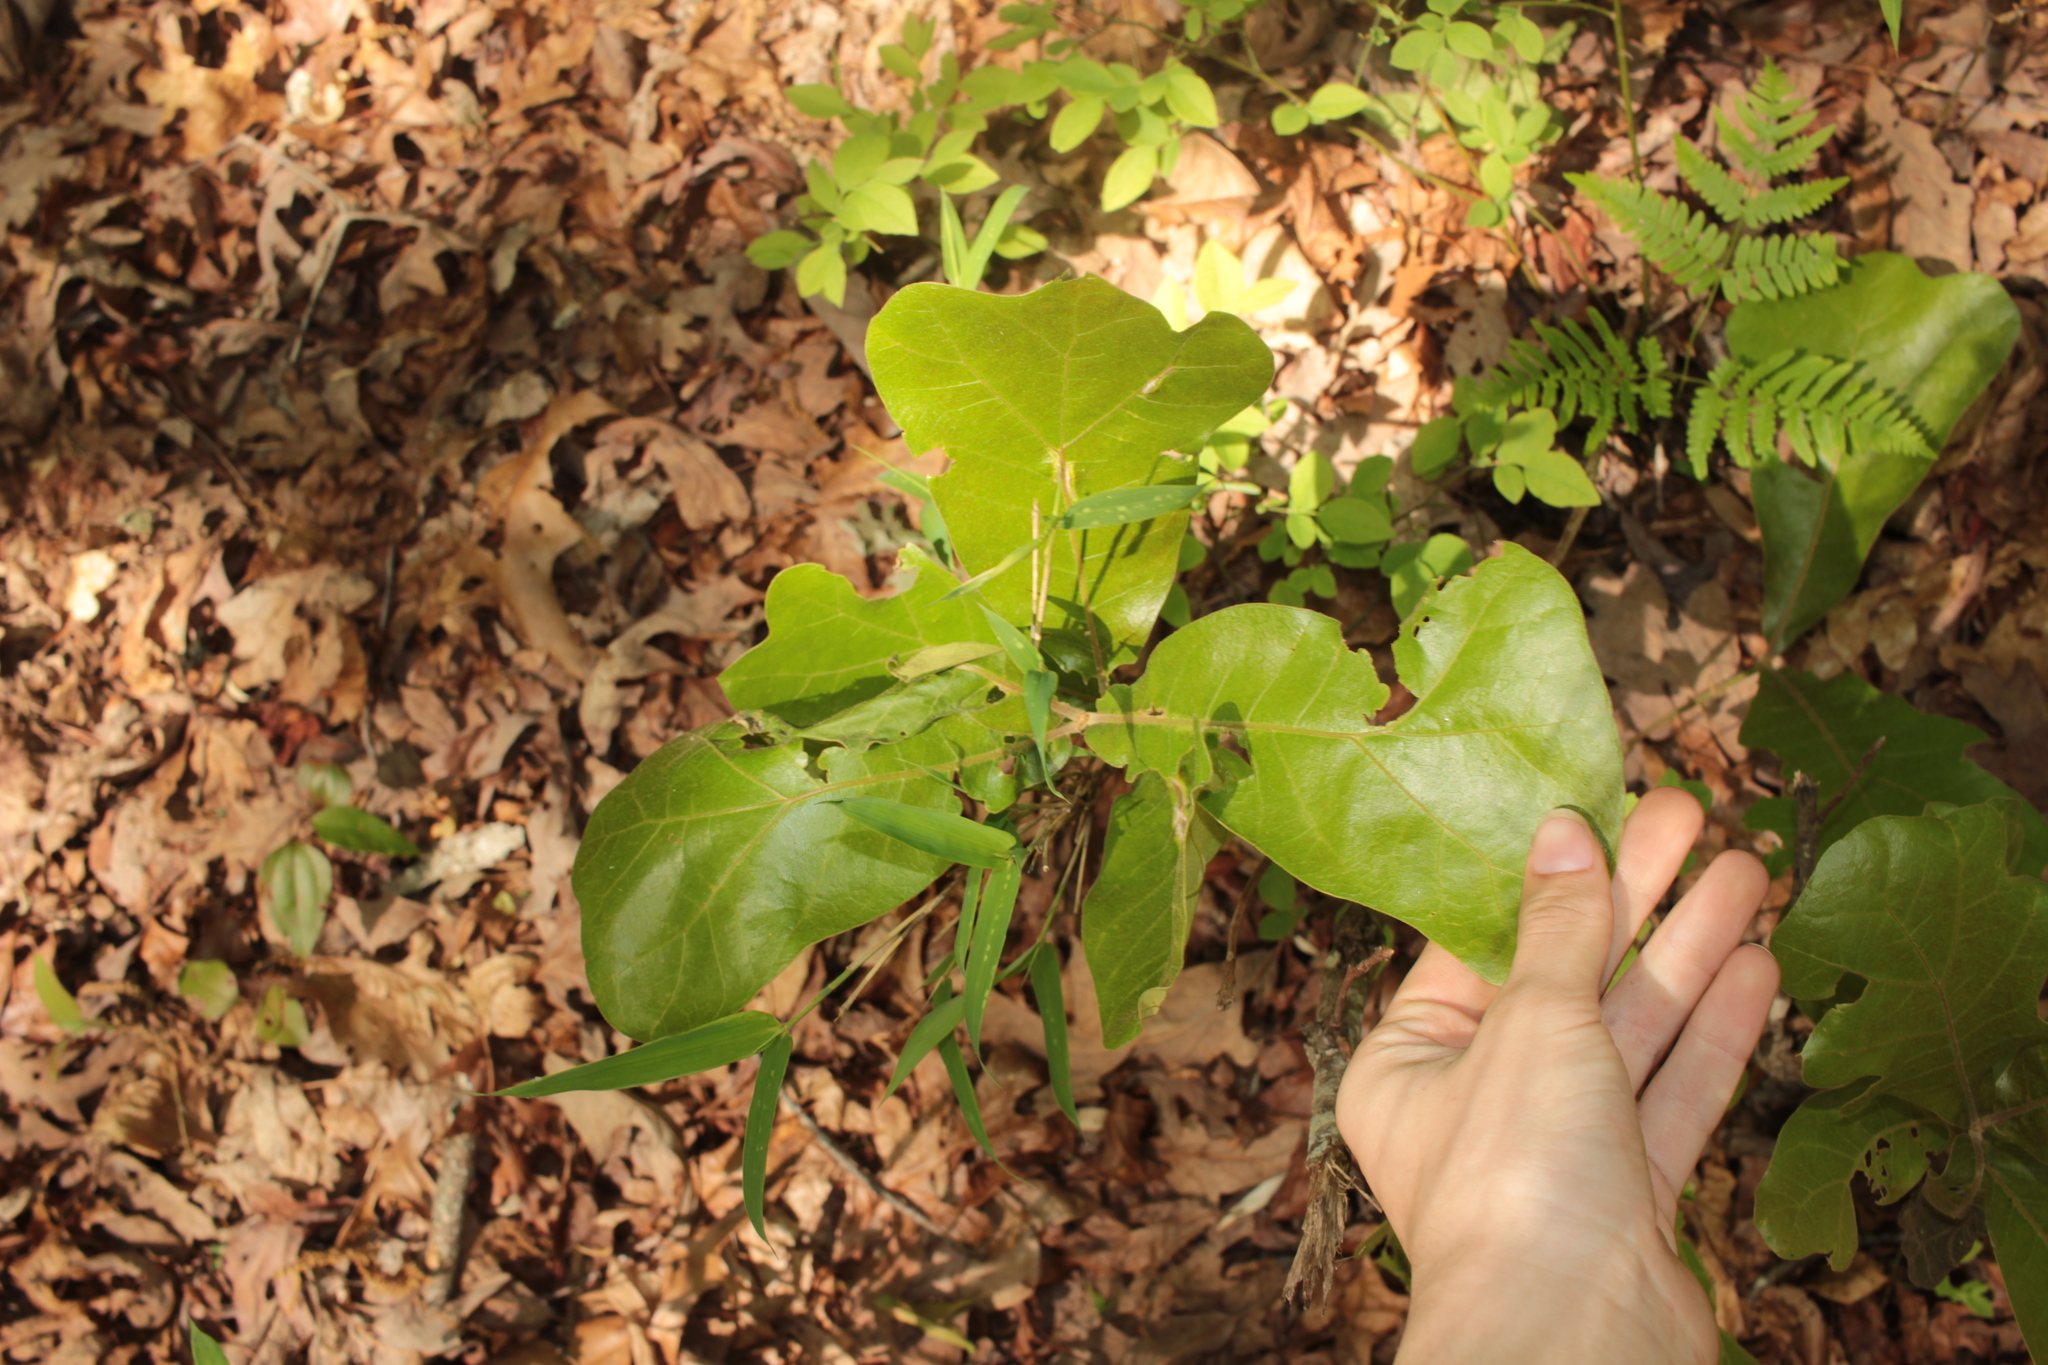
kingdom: Plantae
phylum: Tracheophyta
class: Magnoliopsida
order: Fagales
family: Fagaceae
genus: Quercus
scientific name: Quercus marilandica
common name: Blackjack oak
